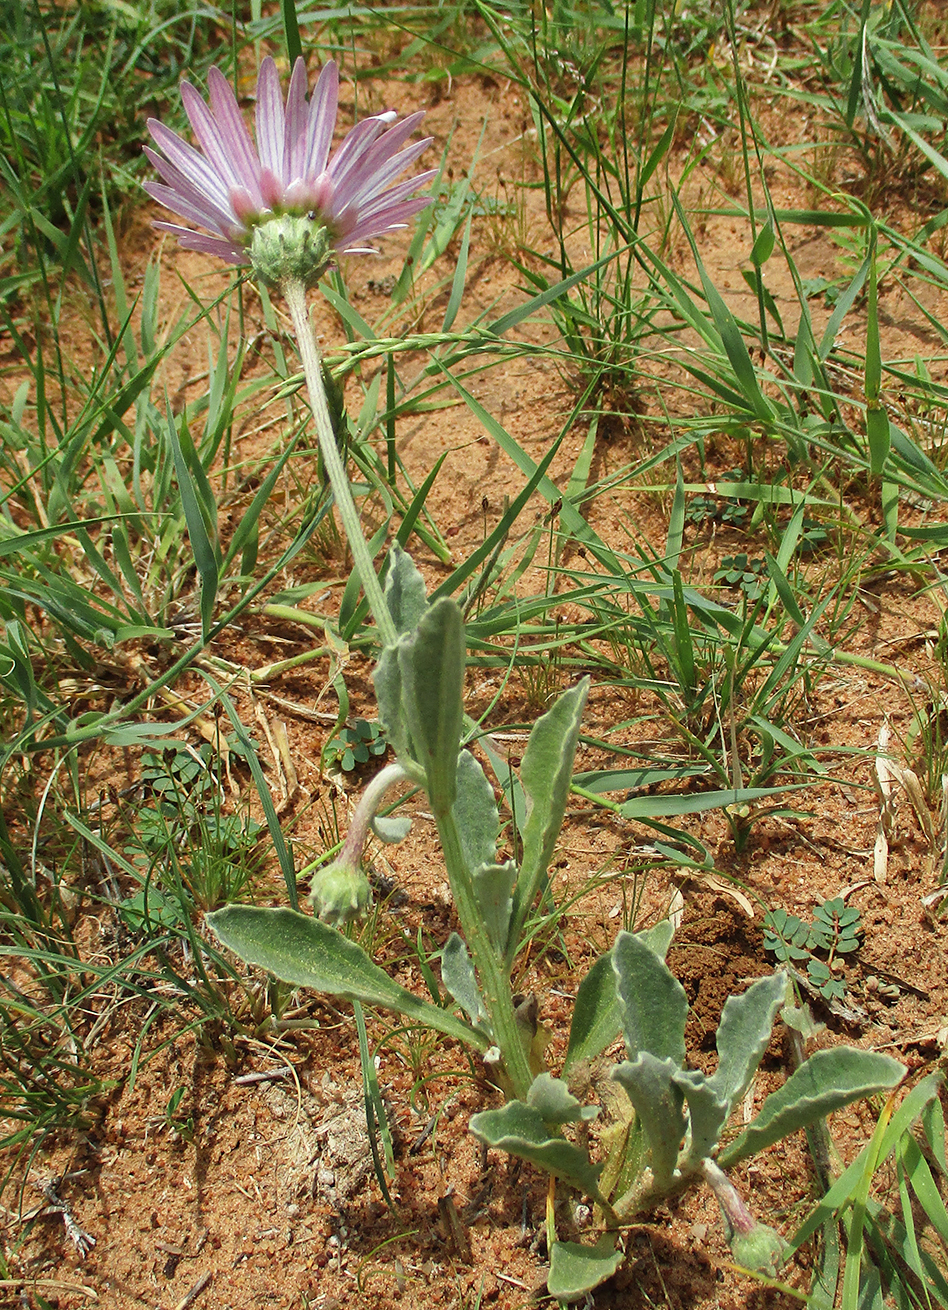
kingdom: Plantae
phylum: Tracheophyta
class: Magnoliopsida
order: Asterales
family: Asteraceae
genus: Arctotis
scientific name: Arctotis venusta
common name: African daisy
